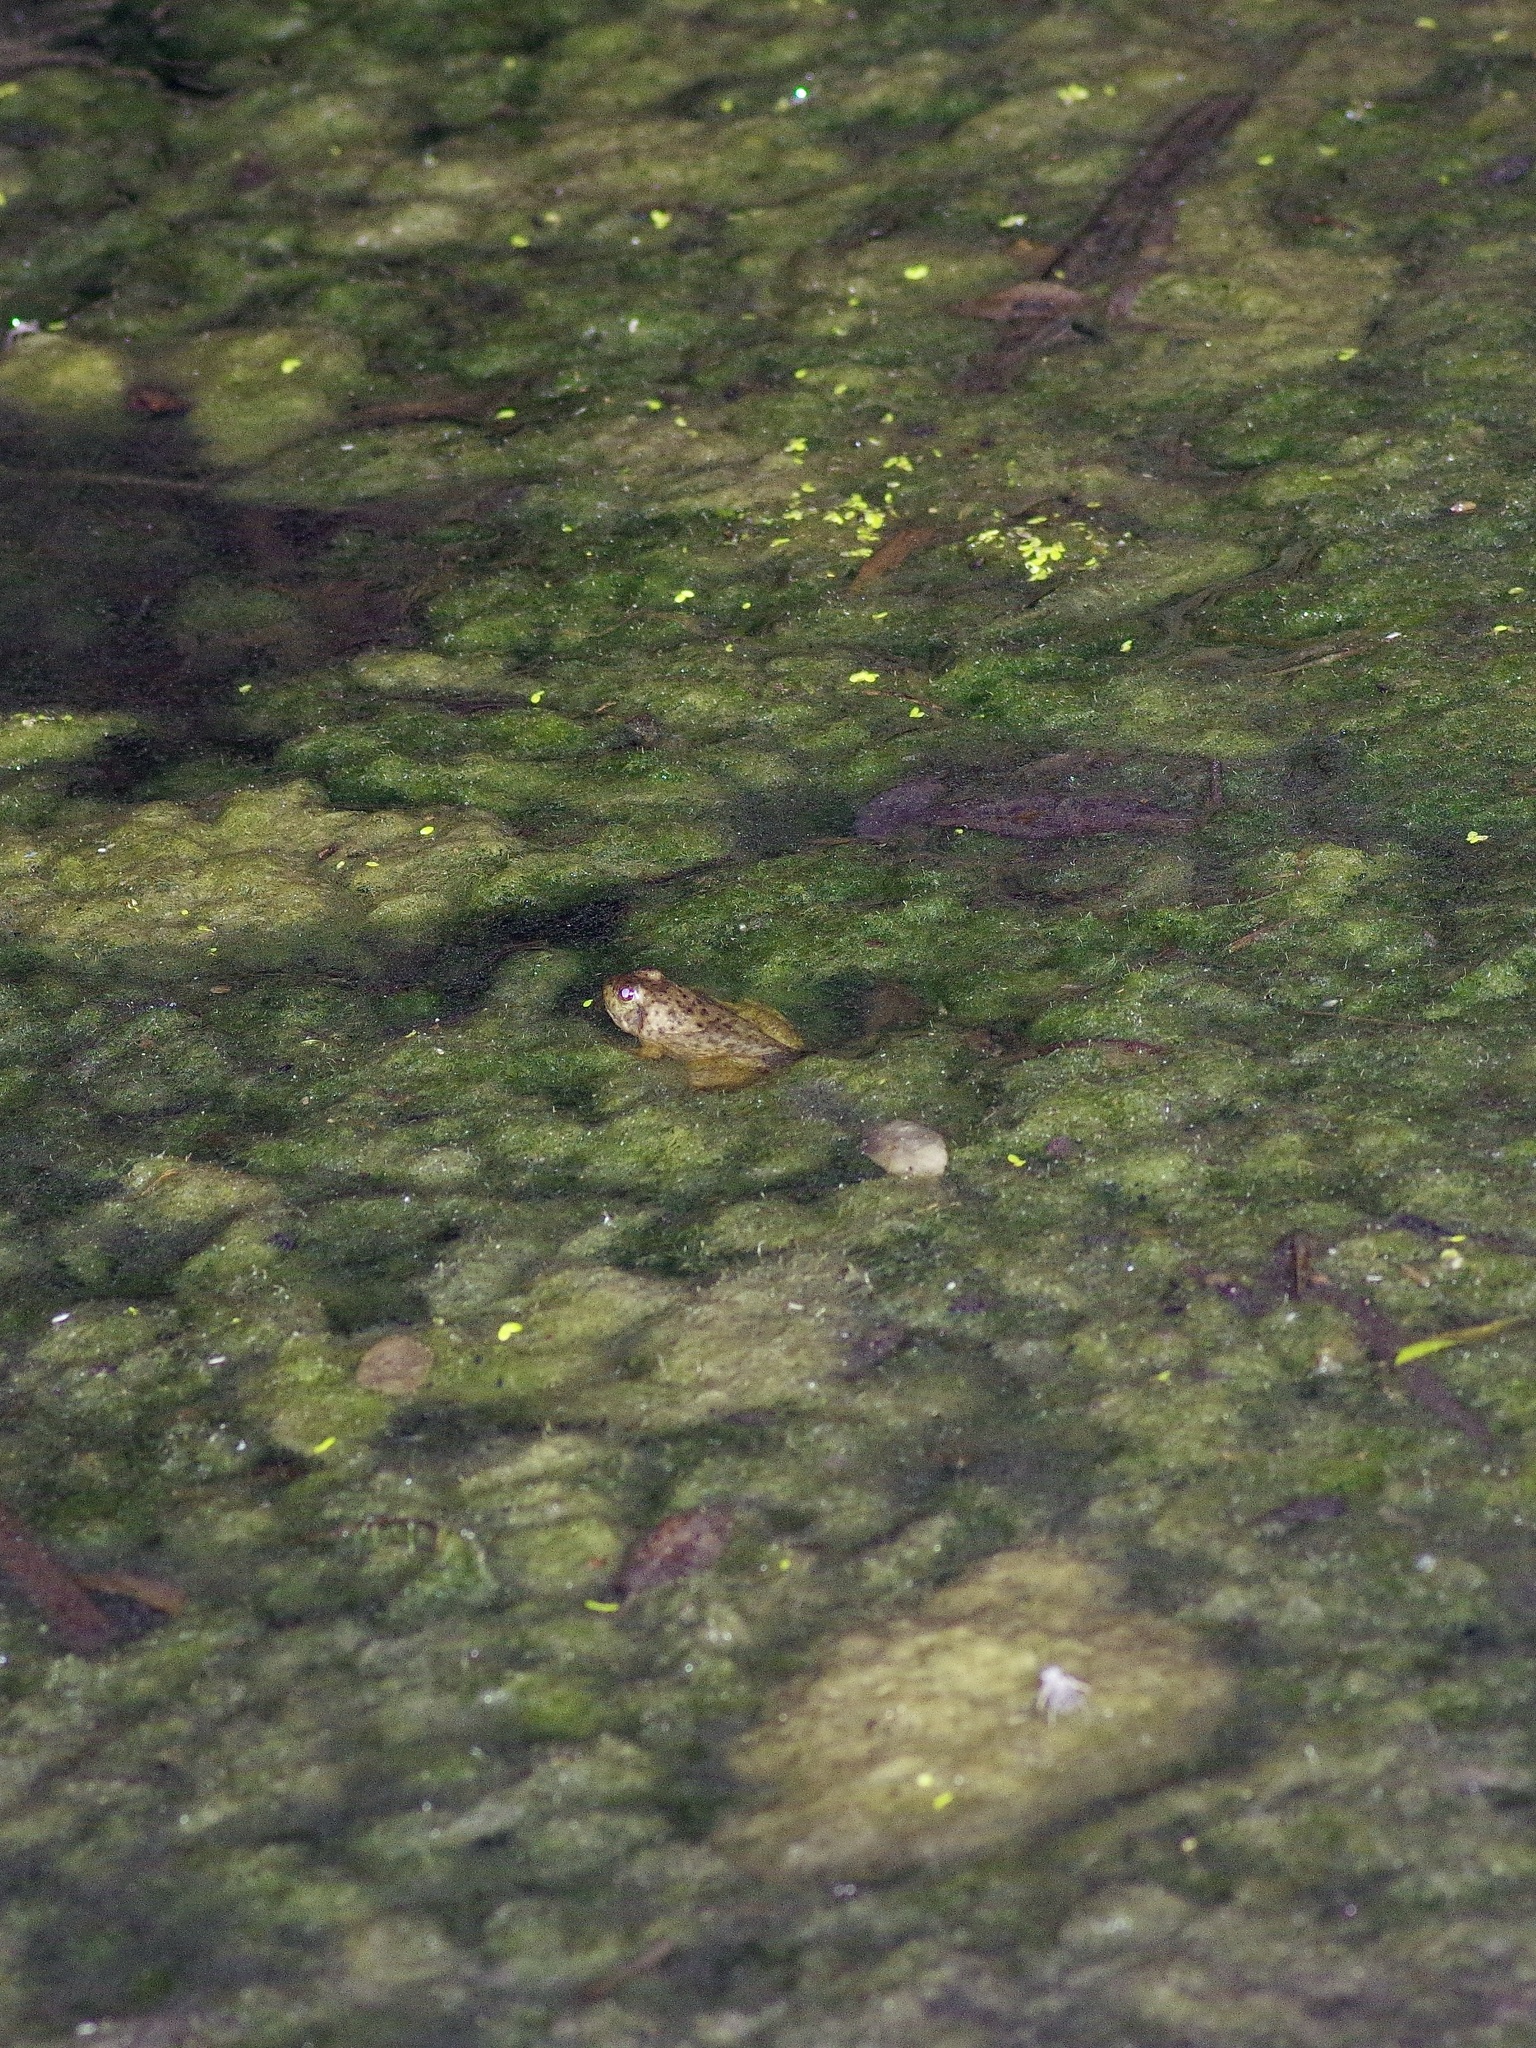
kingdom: Animalia
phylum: Chordata
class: Amphibia
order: Anura
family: Ranidae
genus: Lithobates
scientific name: Lithobates catesbeianus
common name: American bullfrog
